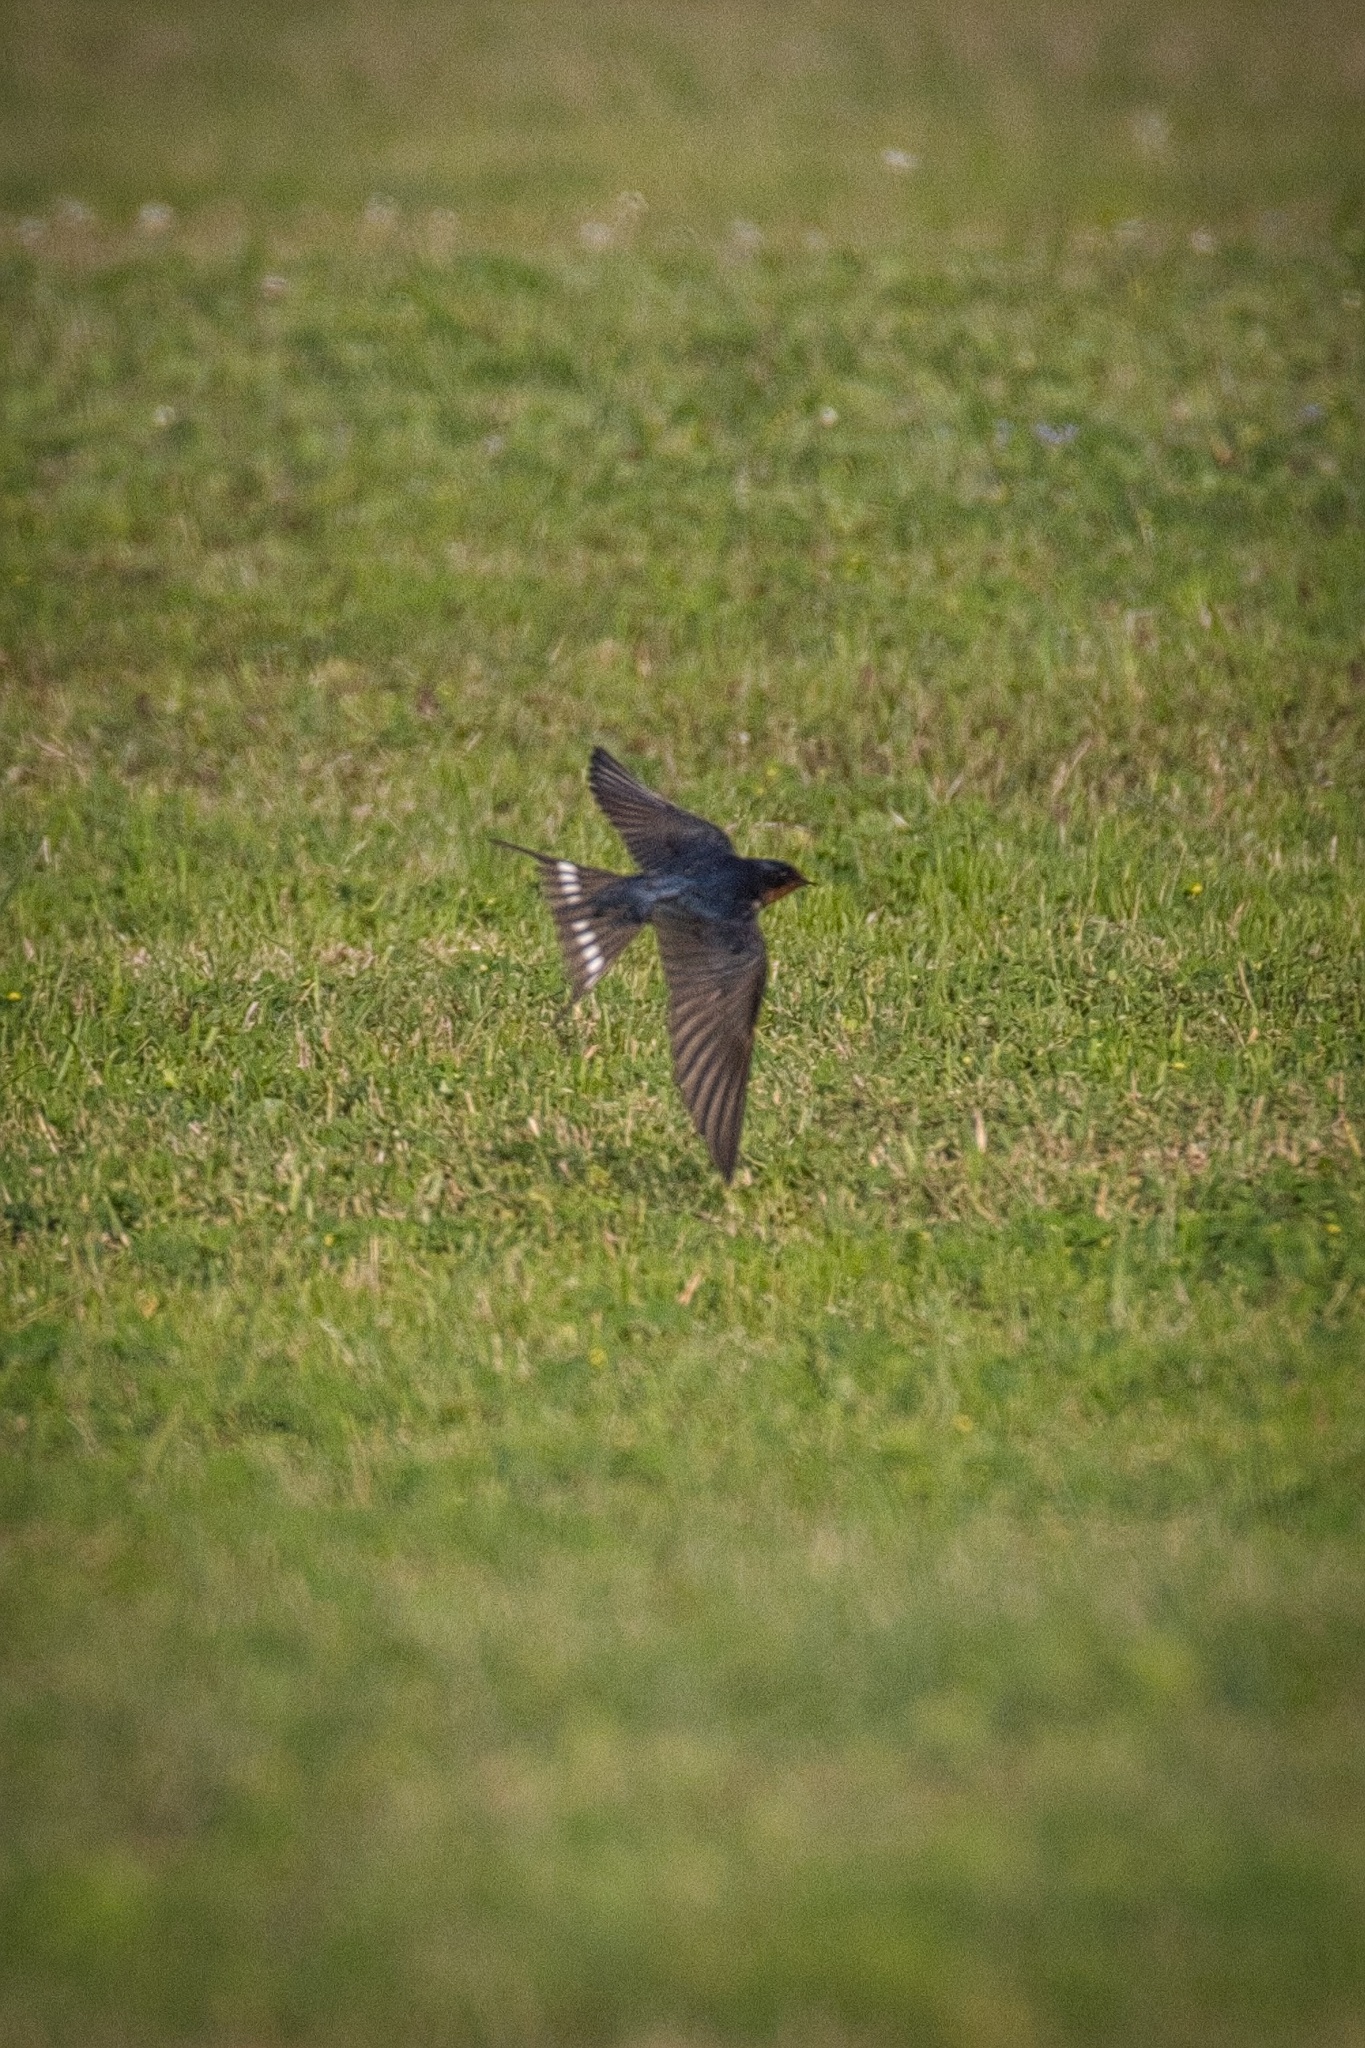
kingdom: Animalia
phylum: Chordata
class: Aves
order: Passeriformes
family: Hirundinidae
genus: Hirundo
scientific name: Hirundo rustica
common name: Barn swallow
